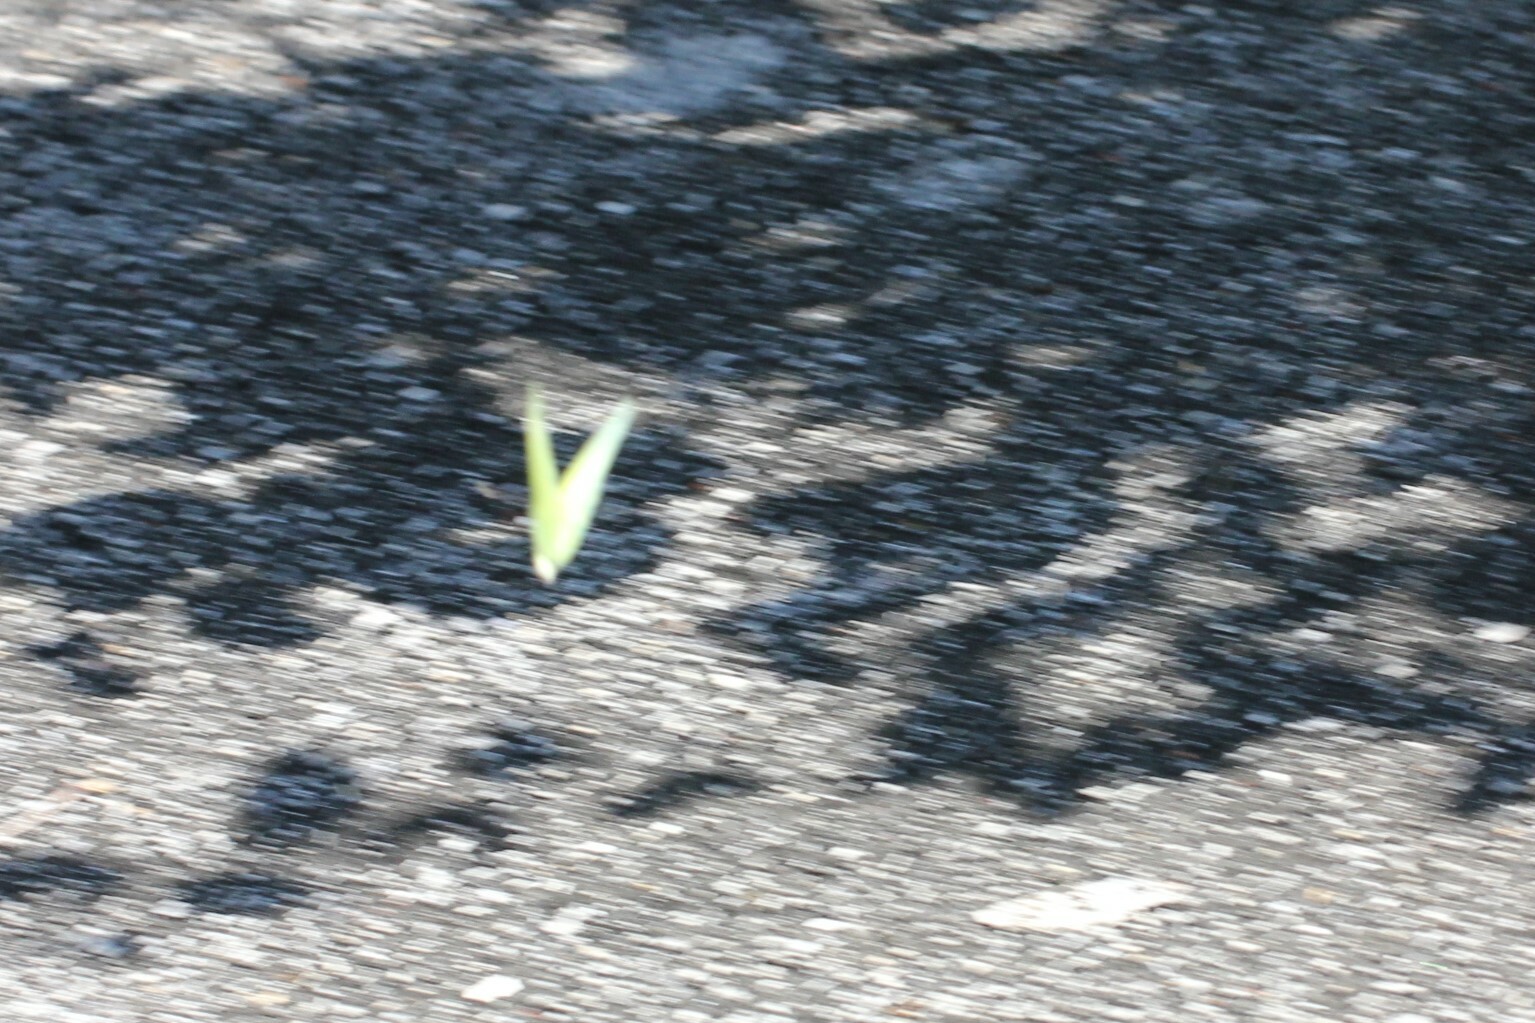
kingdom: Animalia
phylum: Arthropoda
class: Insecta
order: Lepidoptera
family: Pieridae
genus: Phoebis
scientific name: Phoebis sennae
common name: Cloudless sulphur
